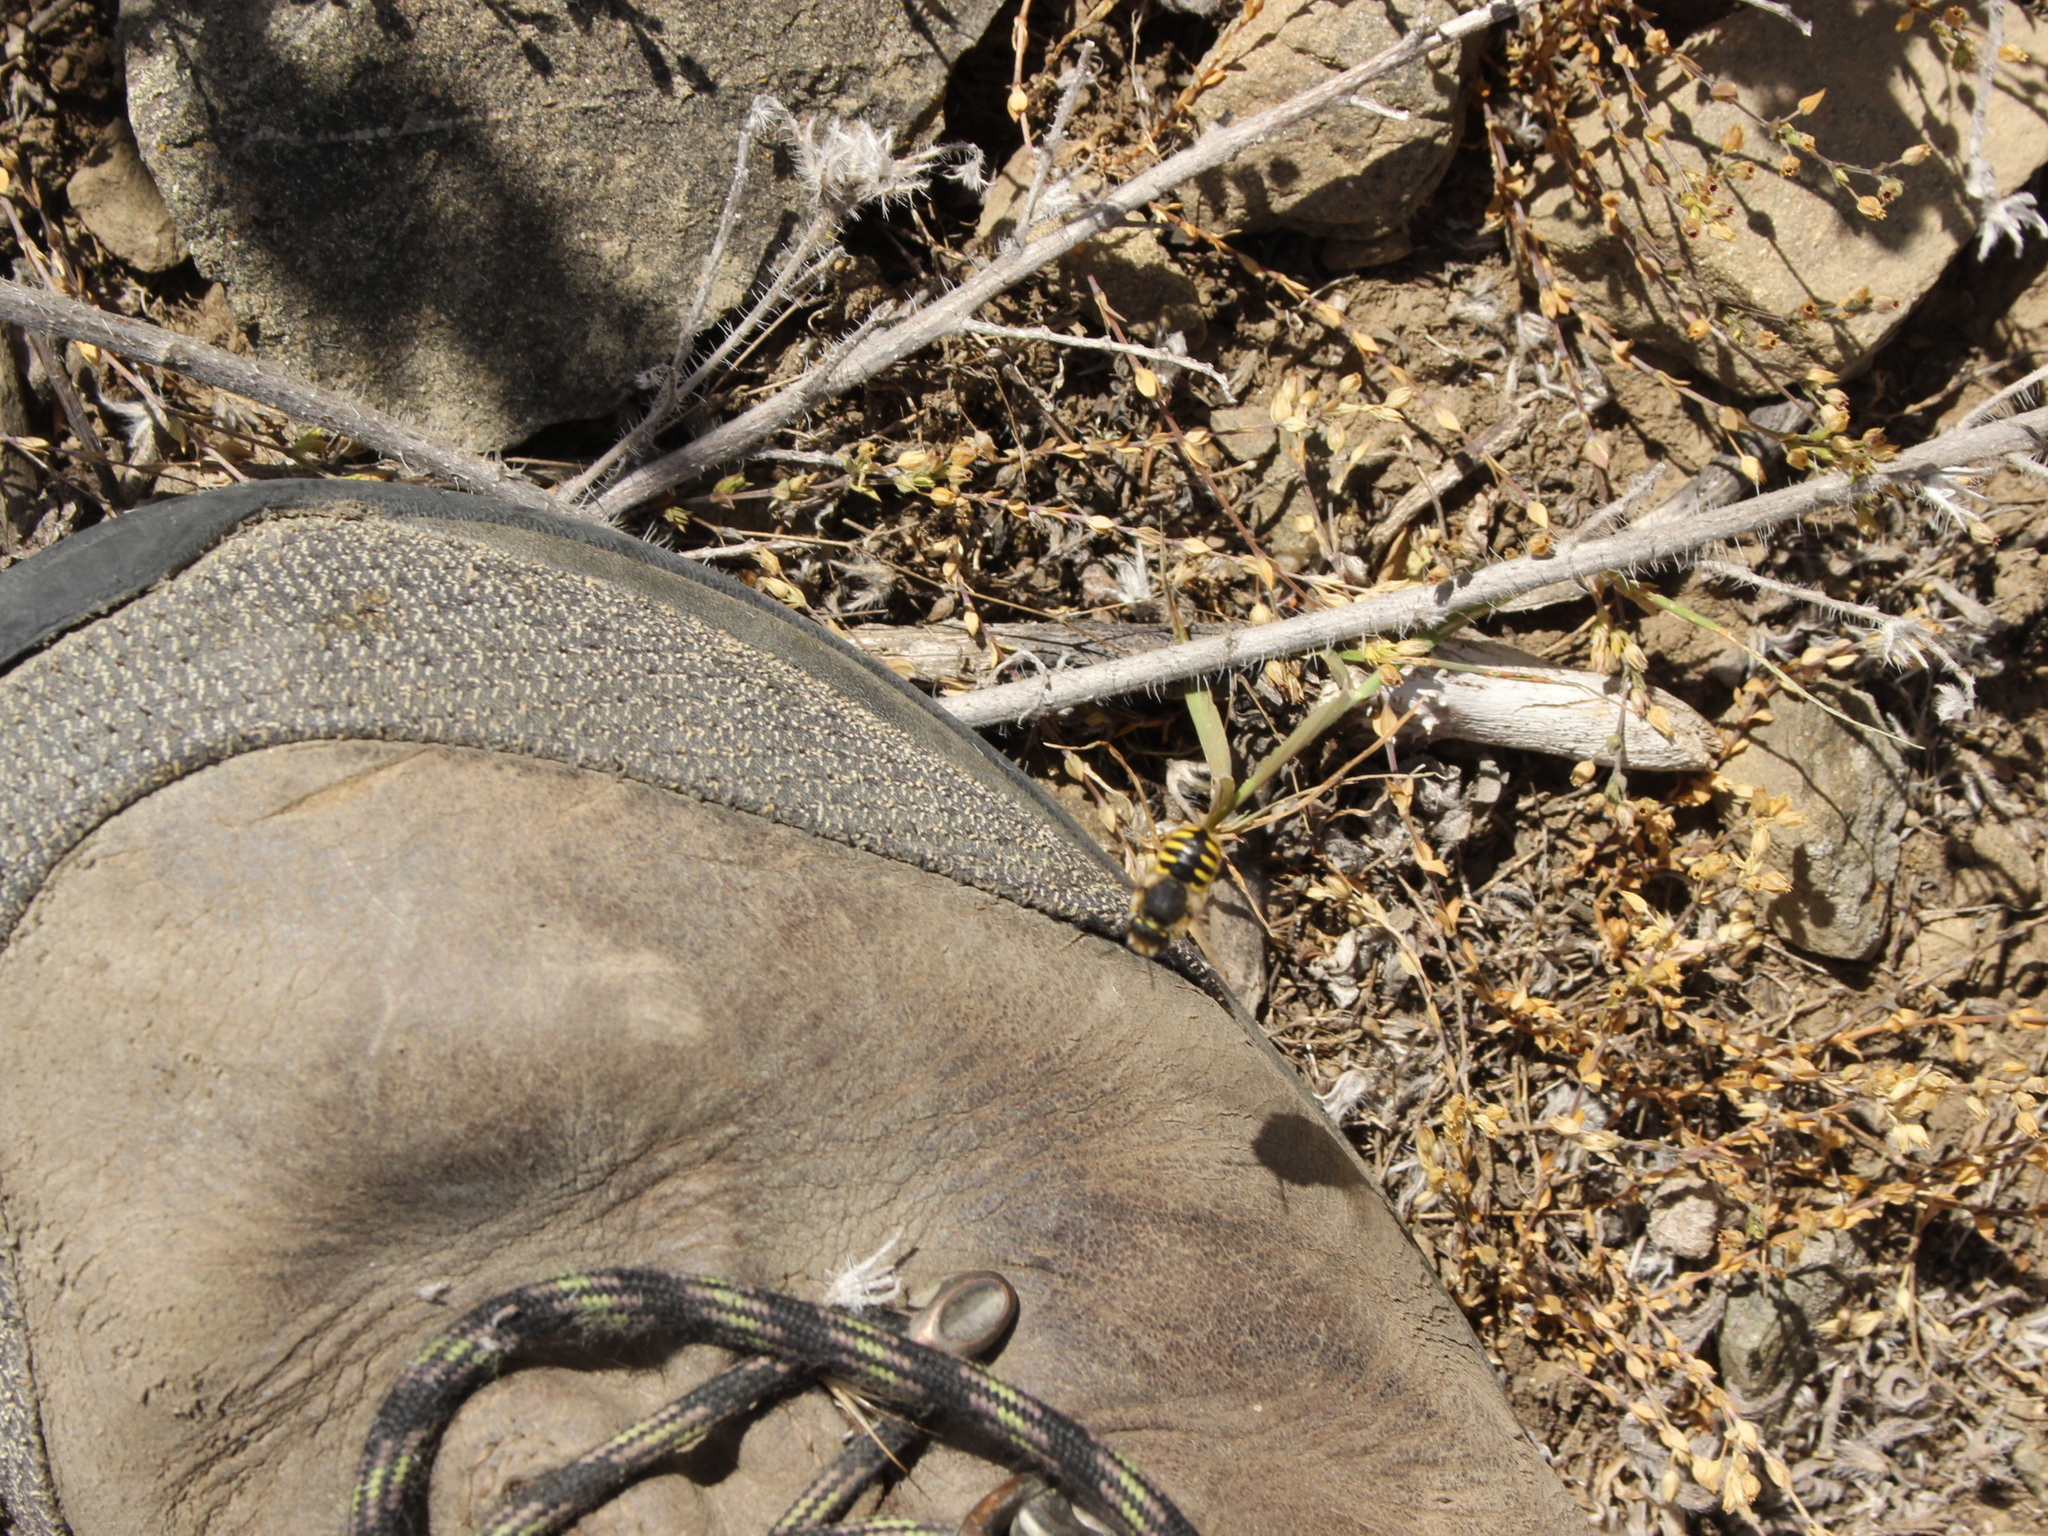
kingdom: Animalia
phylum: Arthropoda
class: Insecta
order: Hymenoptera
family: Megachilidae
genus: Anthidium
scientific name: Anthidium manicatum
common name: Wool carder bee
